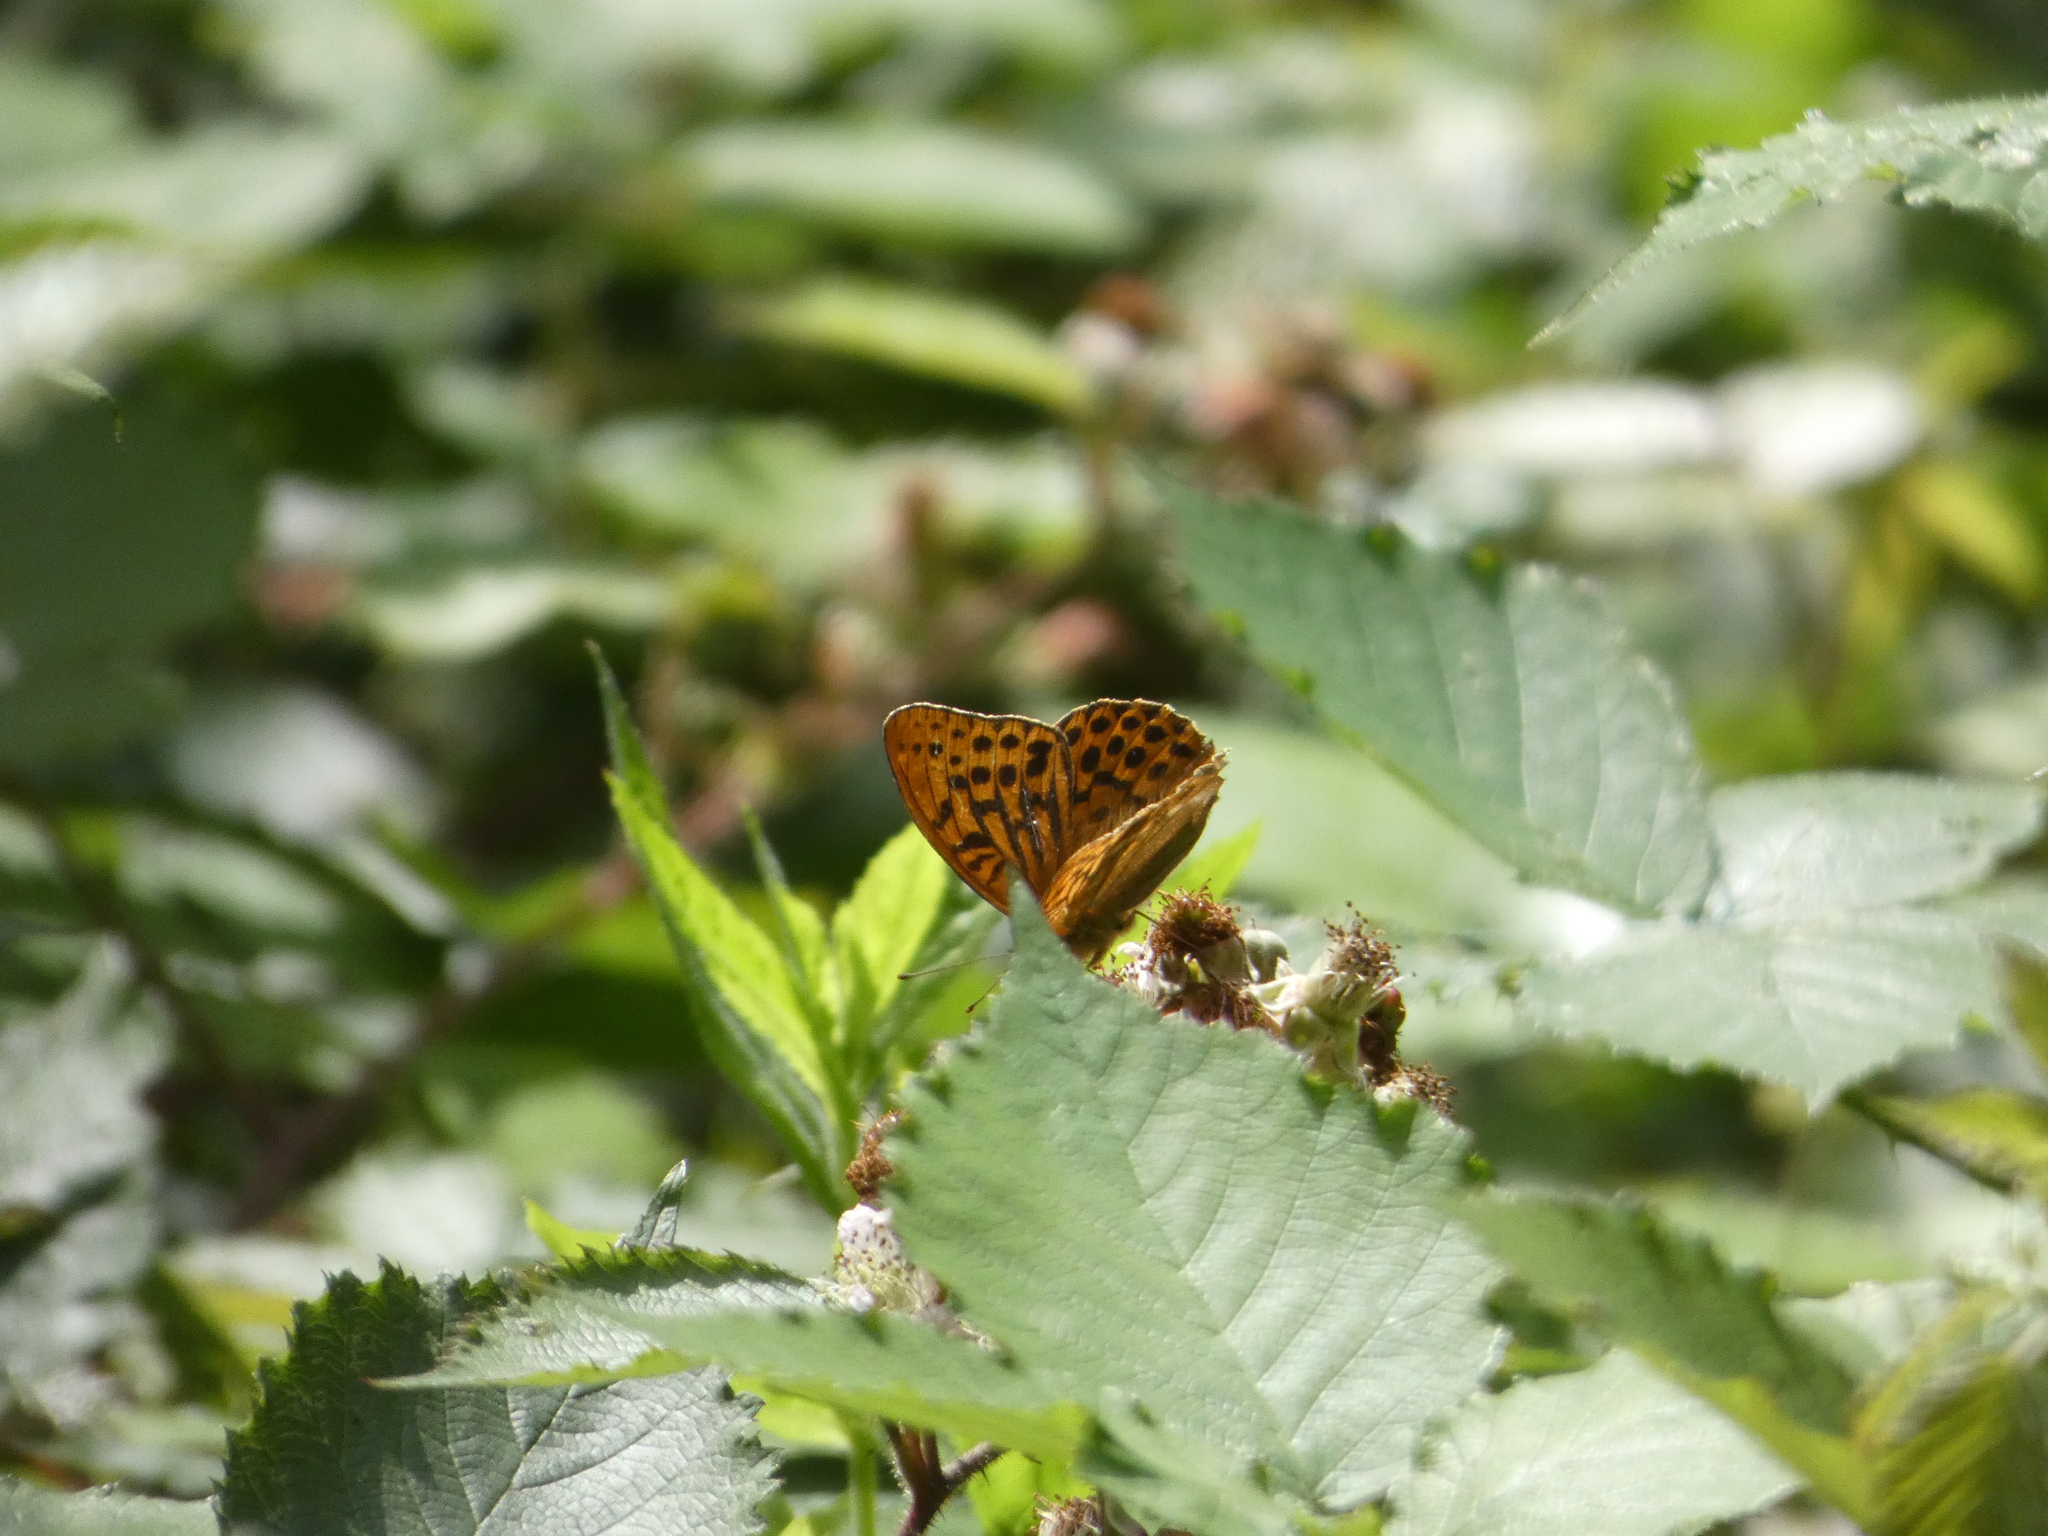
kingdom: Animalia
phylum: Arthropoda
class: Insecta
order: Lepidoptera
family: Nymphalidae
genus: Argynnis
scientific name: Argynnis paphia
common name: Silver-washed fritillary
